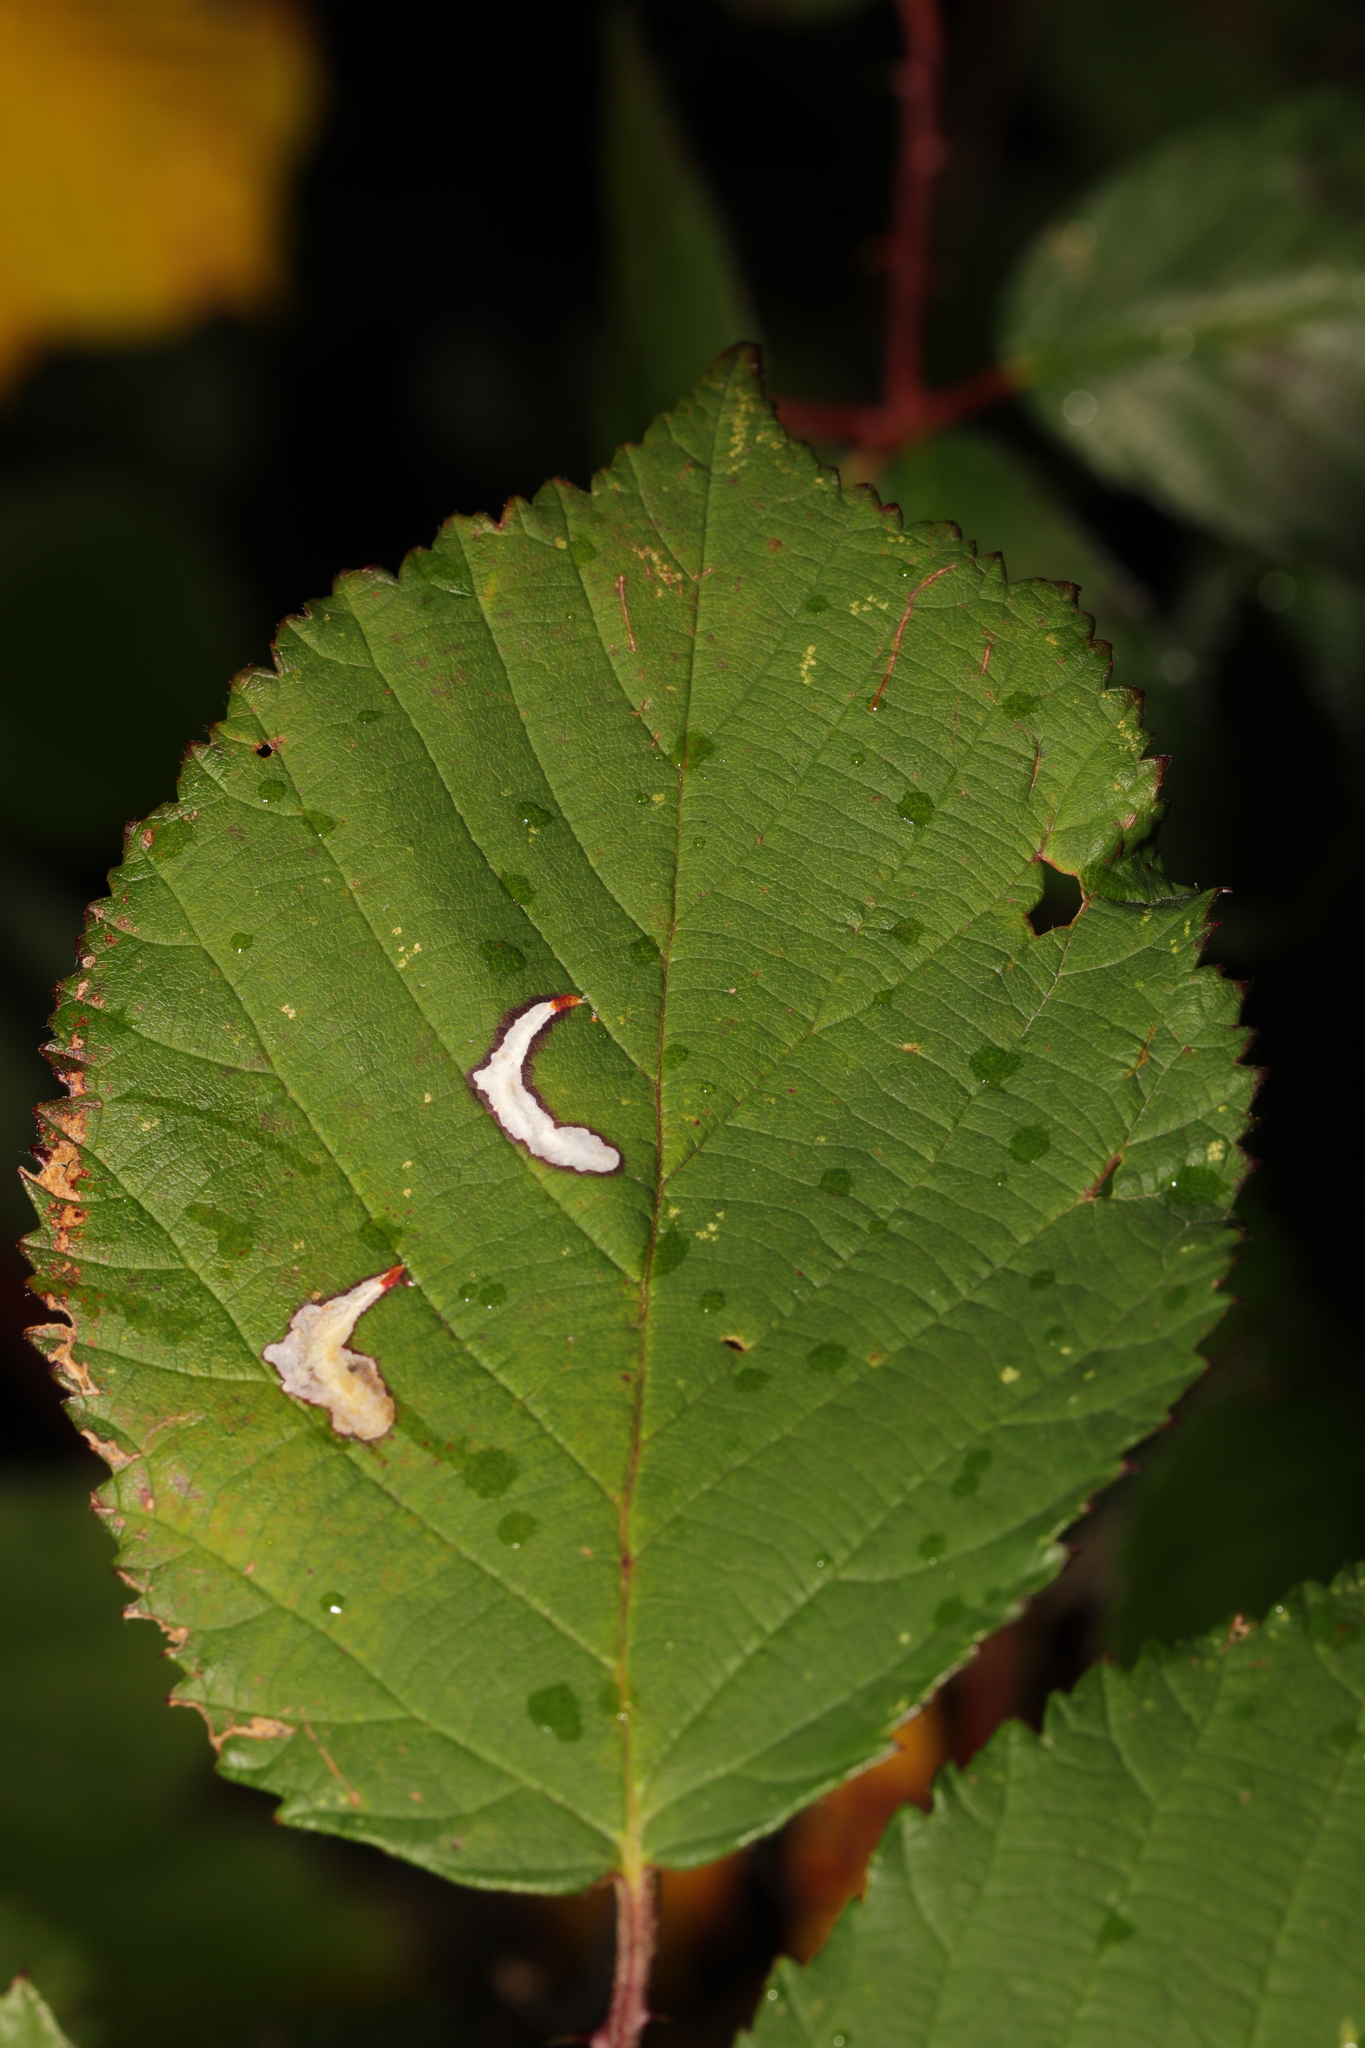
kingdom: Animalia
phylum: Arthropoda
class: Insecta
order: Lepidoptera
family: Tischeriidae
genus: Coptotriche
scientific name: Coptotriche marginea
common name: Bordered carl
